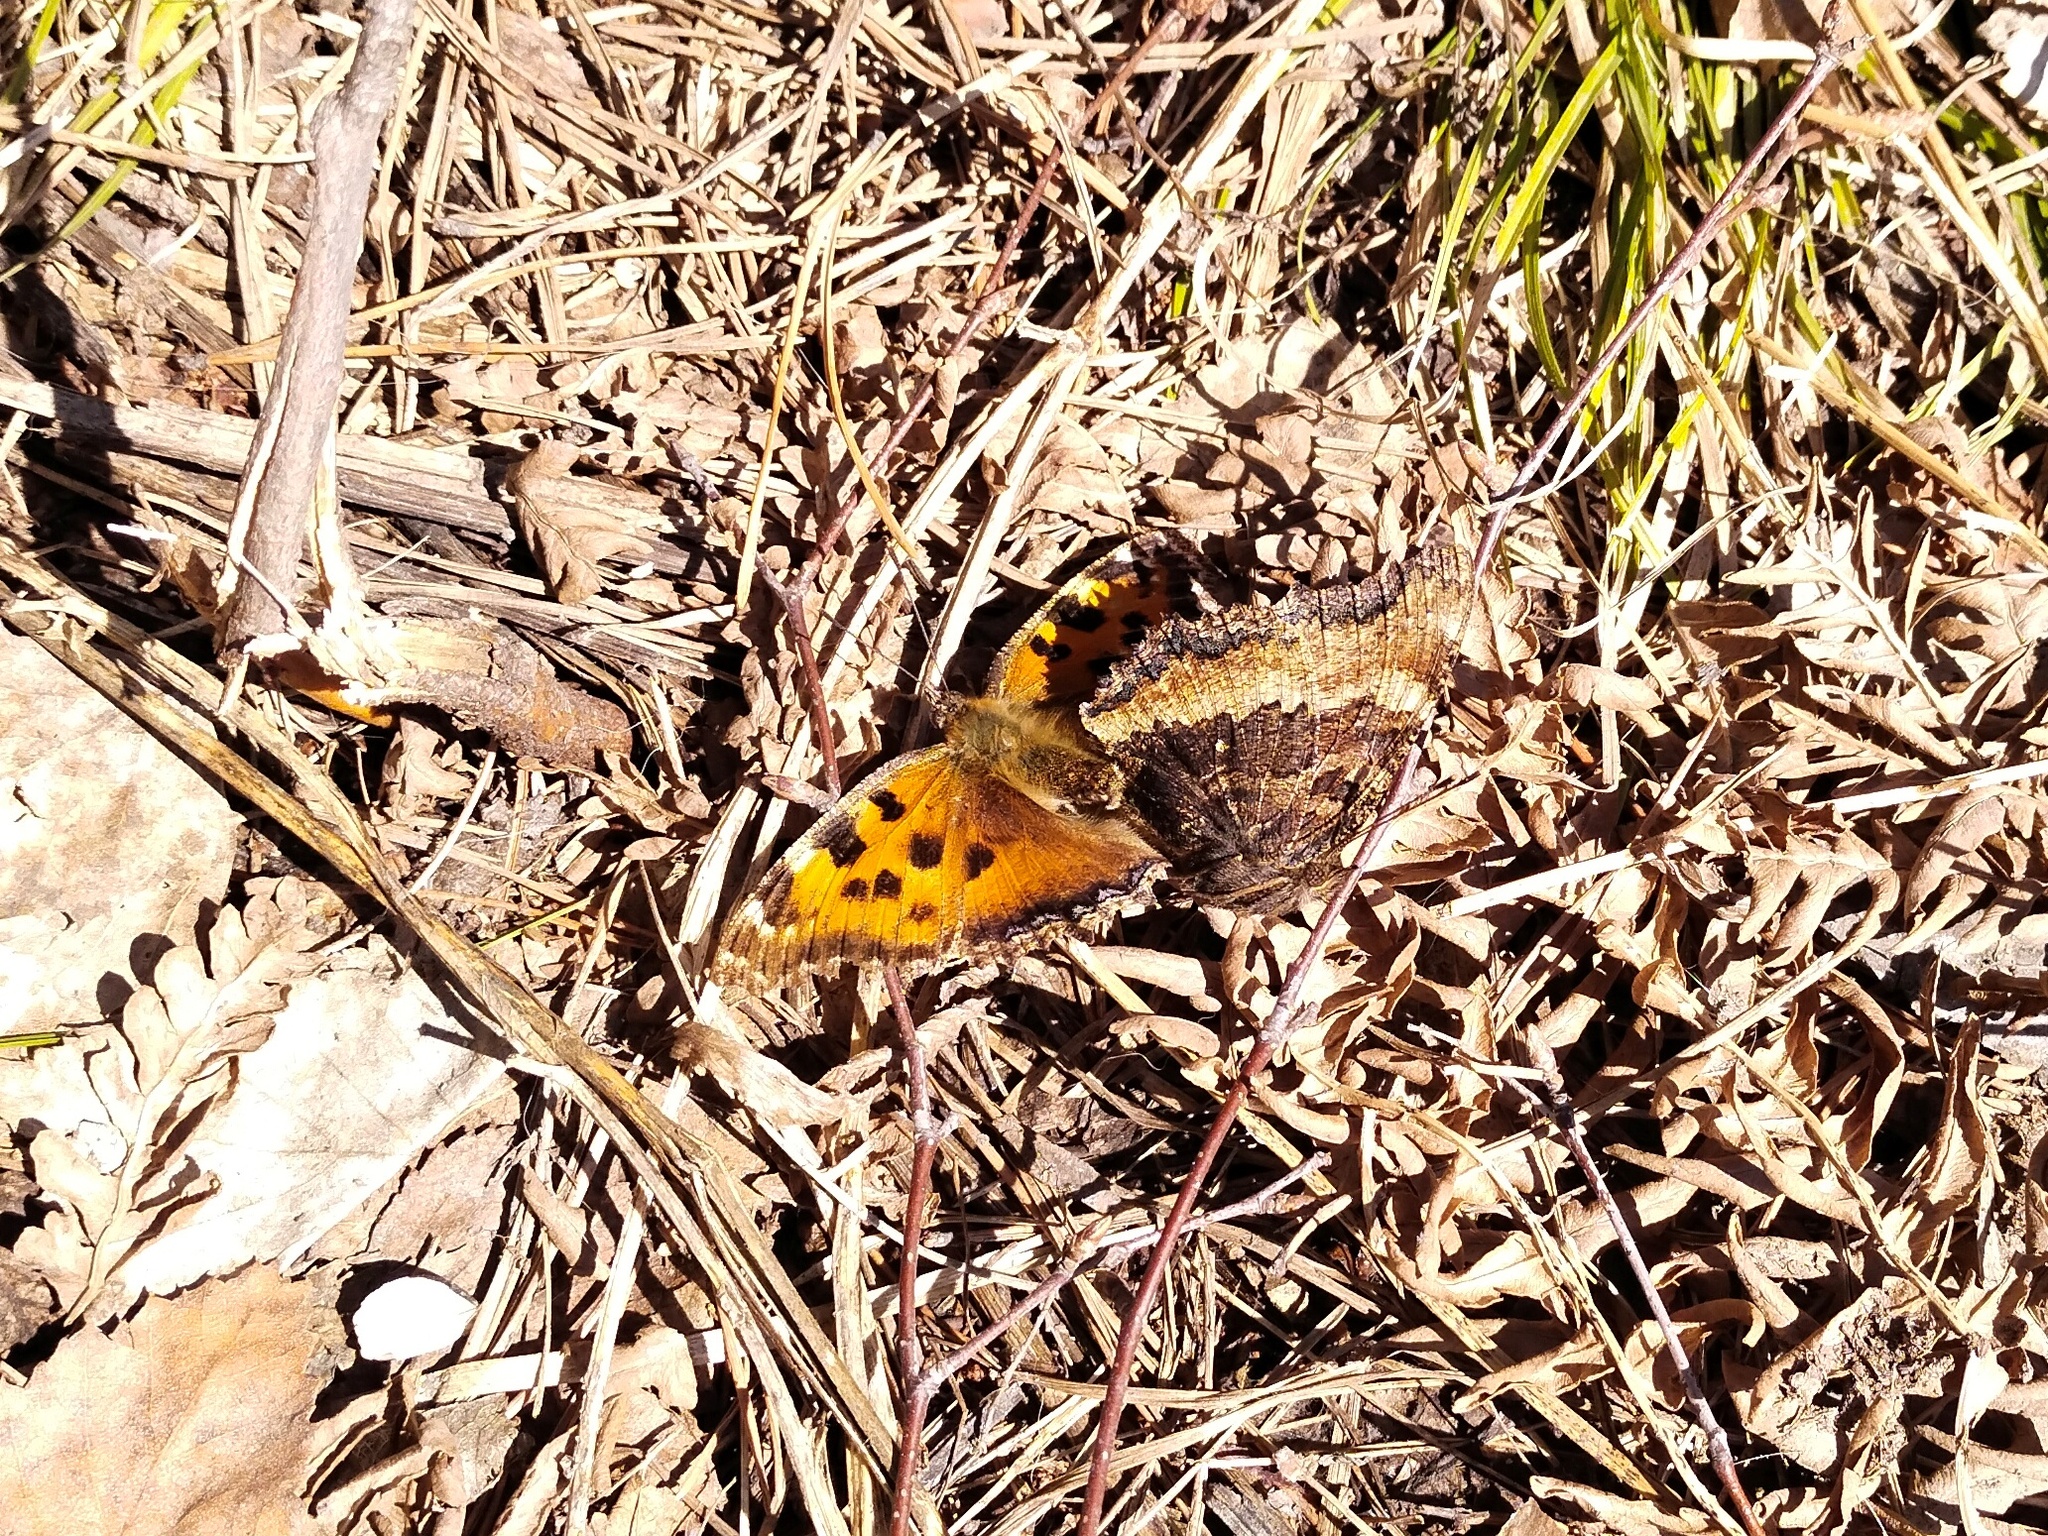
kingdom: Animalia
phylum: Arthropoda
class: Insecta
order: Lepidoptera
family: Nymphalidae
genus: Nymphalis
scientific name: Nymphalis xanthomelas
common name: Scarce tortoiseshell
